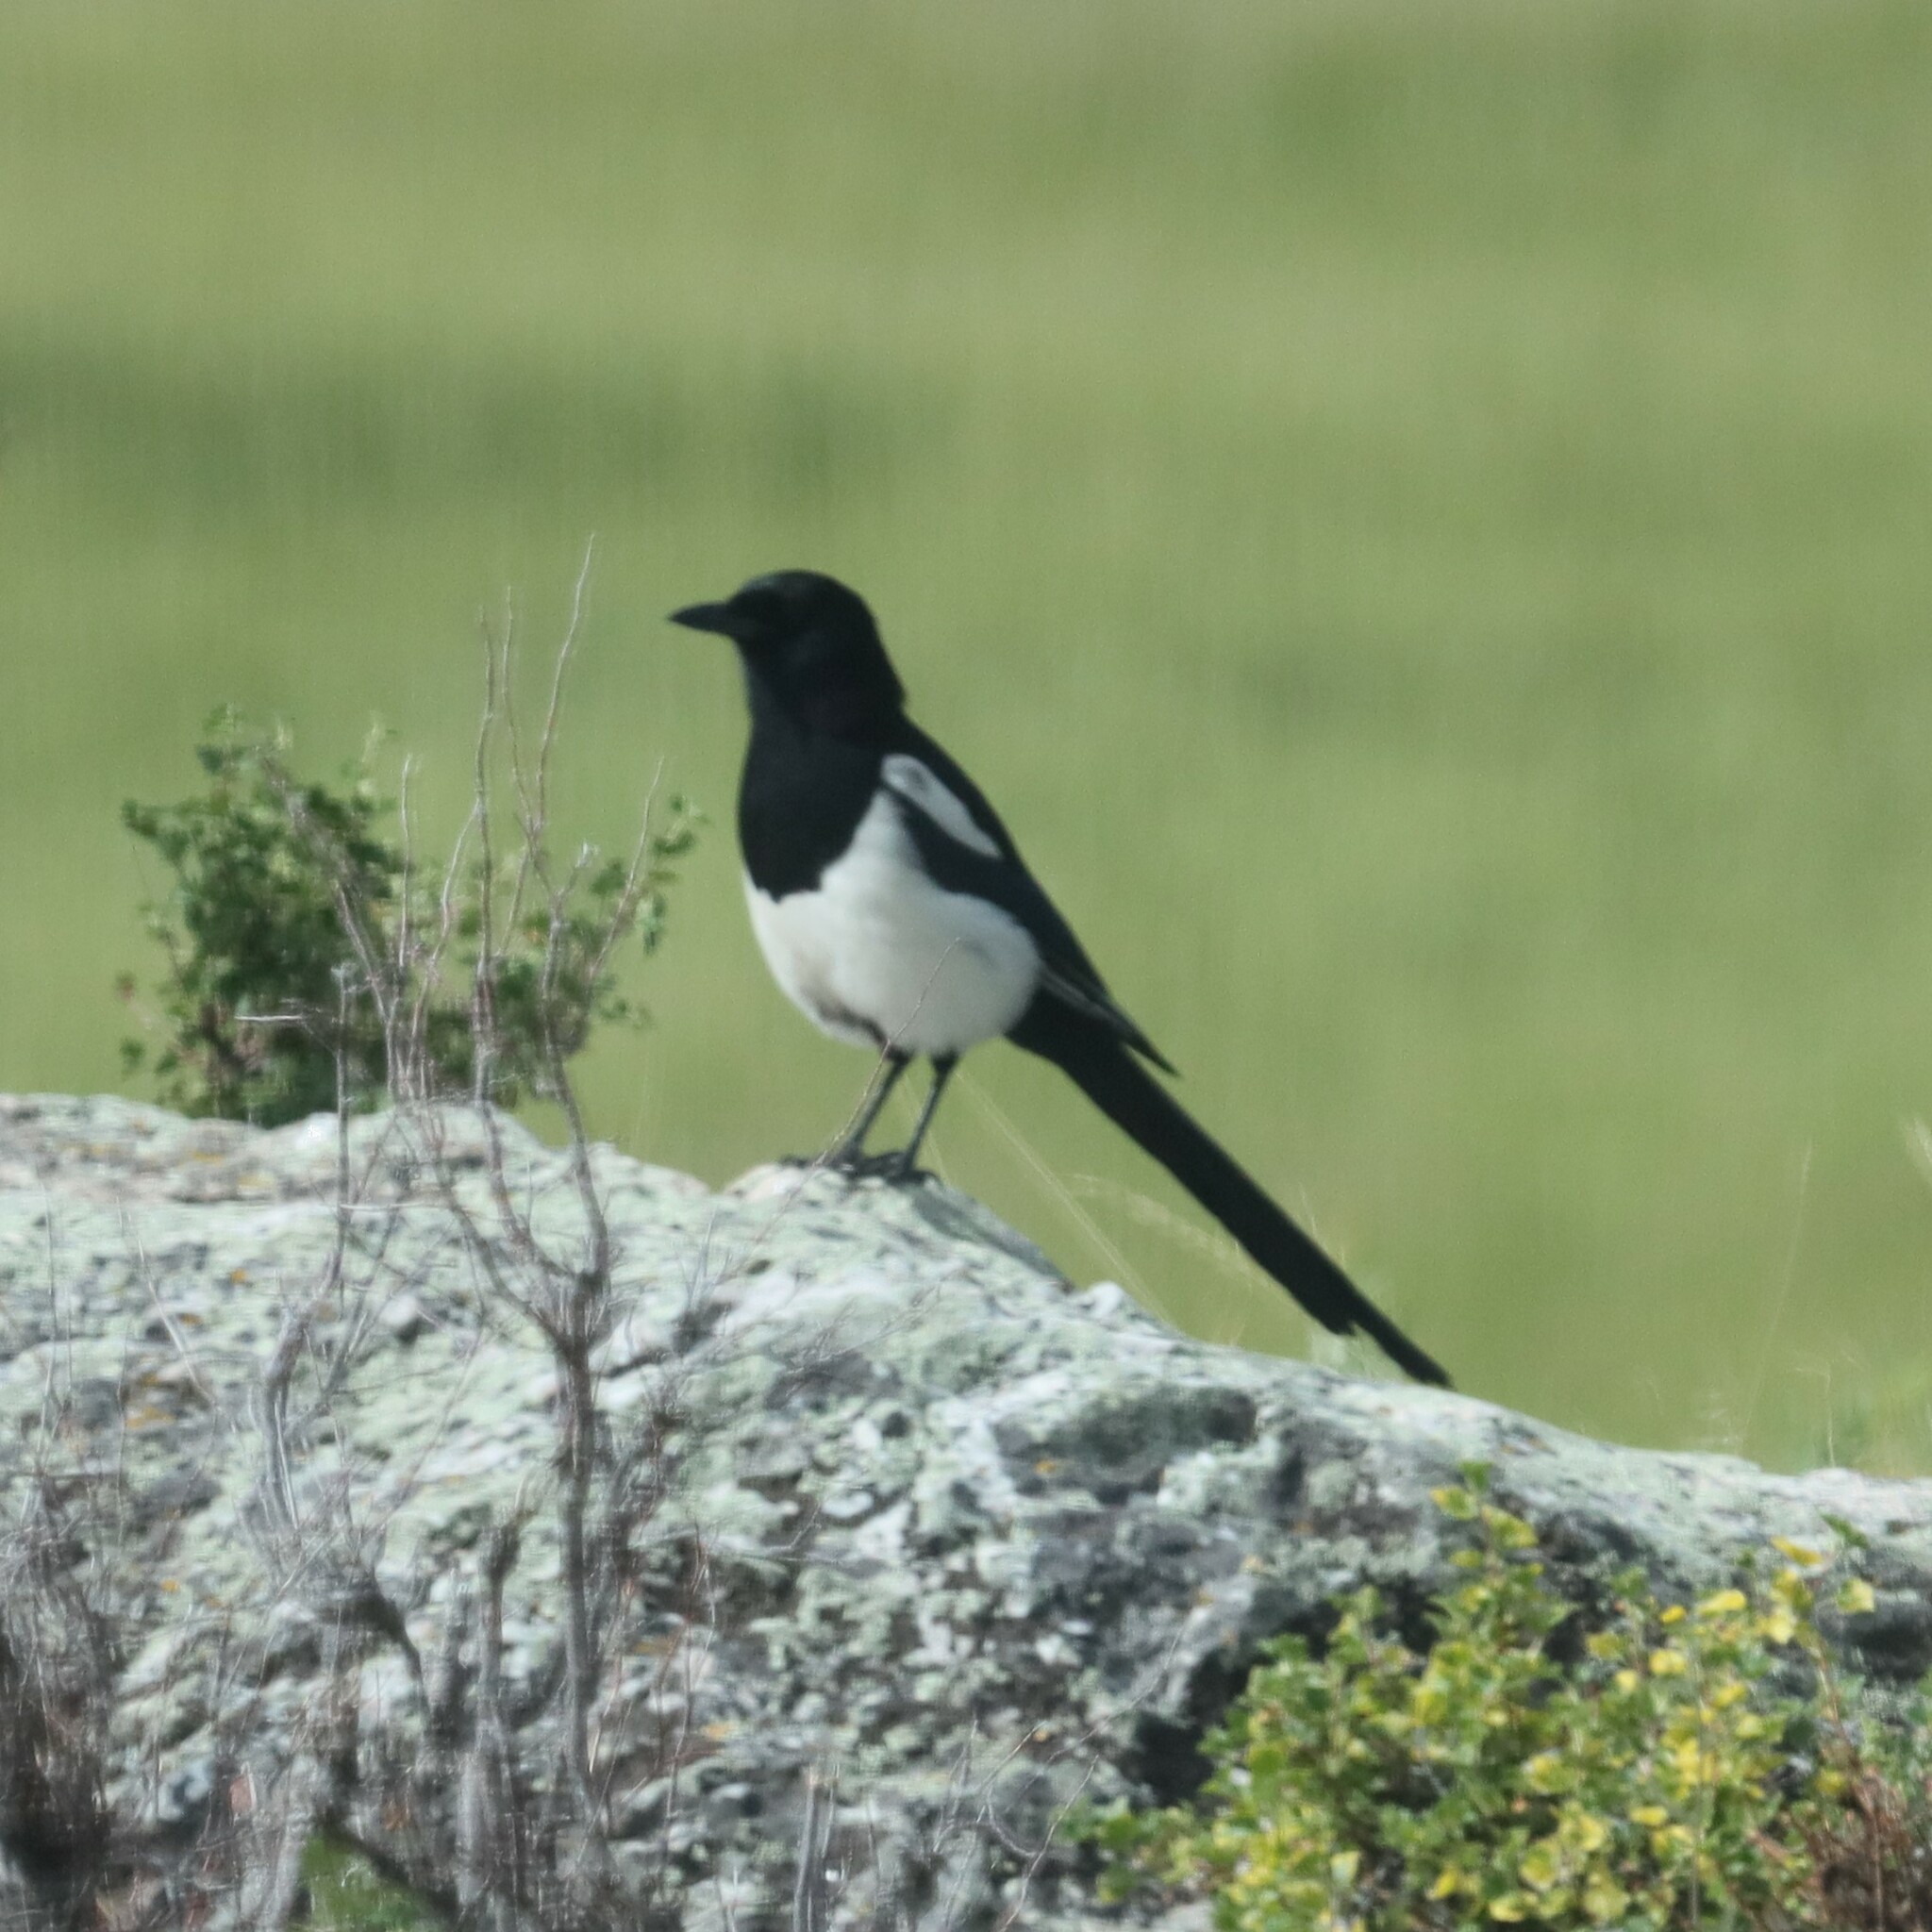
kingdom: Animalia
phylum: Chordata
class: Aves
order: Passeriformes
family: Corvidae
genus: Pica
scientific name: Pica hudsonia
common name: Black-billed magpie
